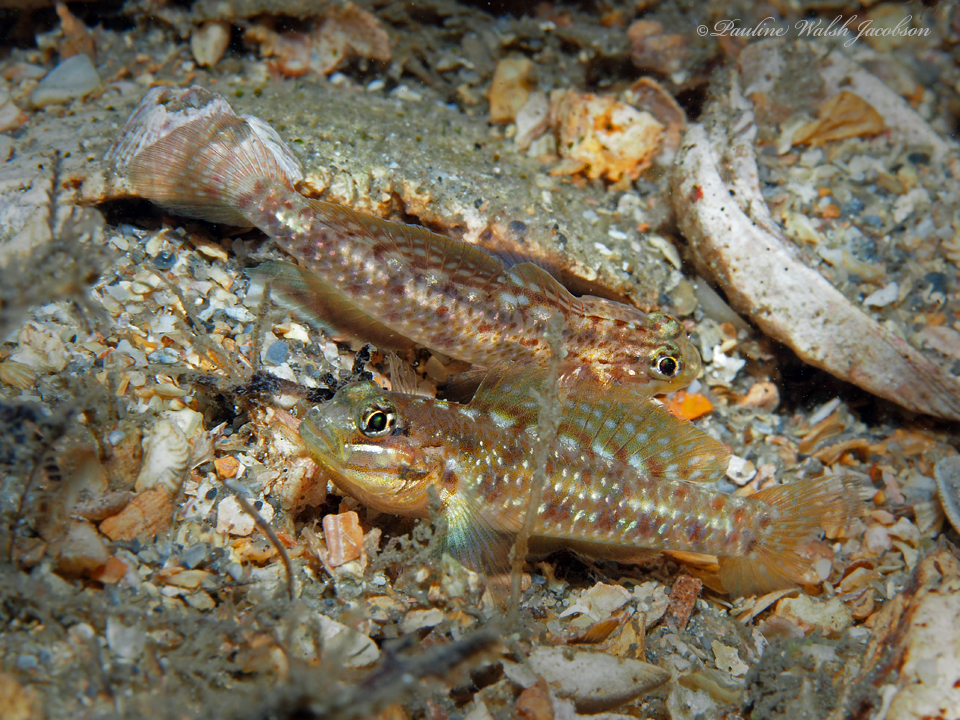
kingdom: Animalia
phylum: Chordata
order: Perciformes
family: Gobiidae
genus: Coryphopterus
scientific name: Coryphopterus dicrus
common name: Colon goby
